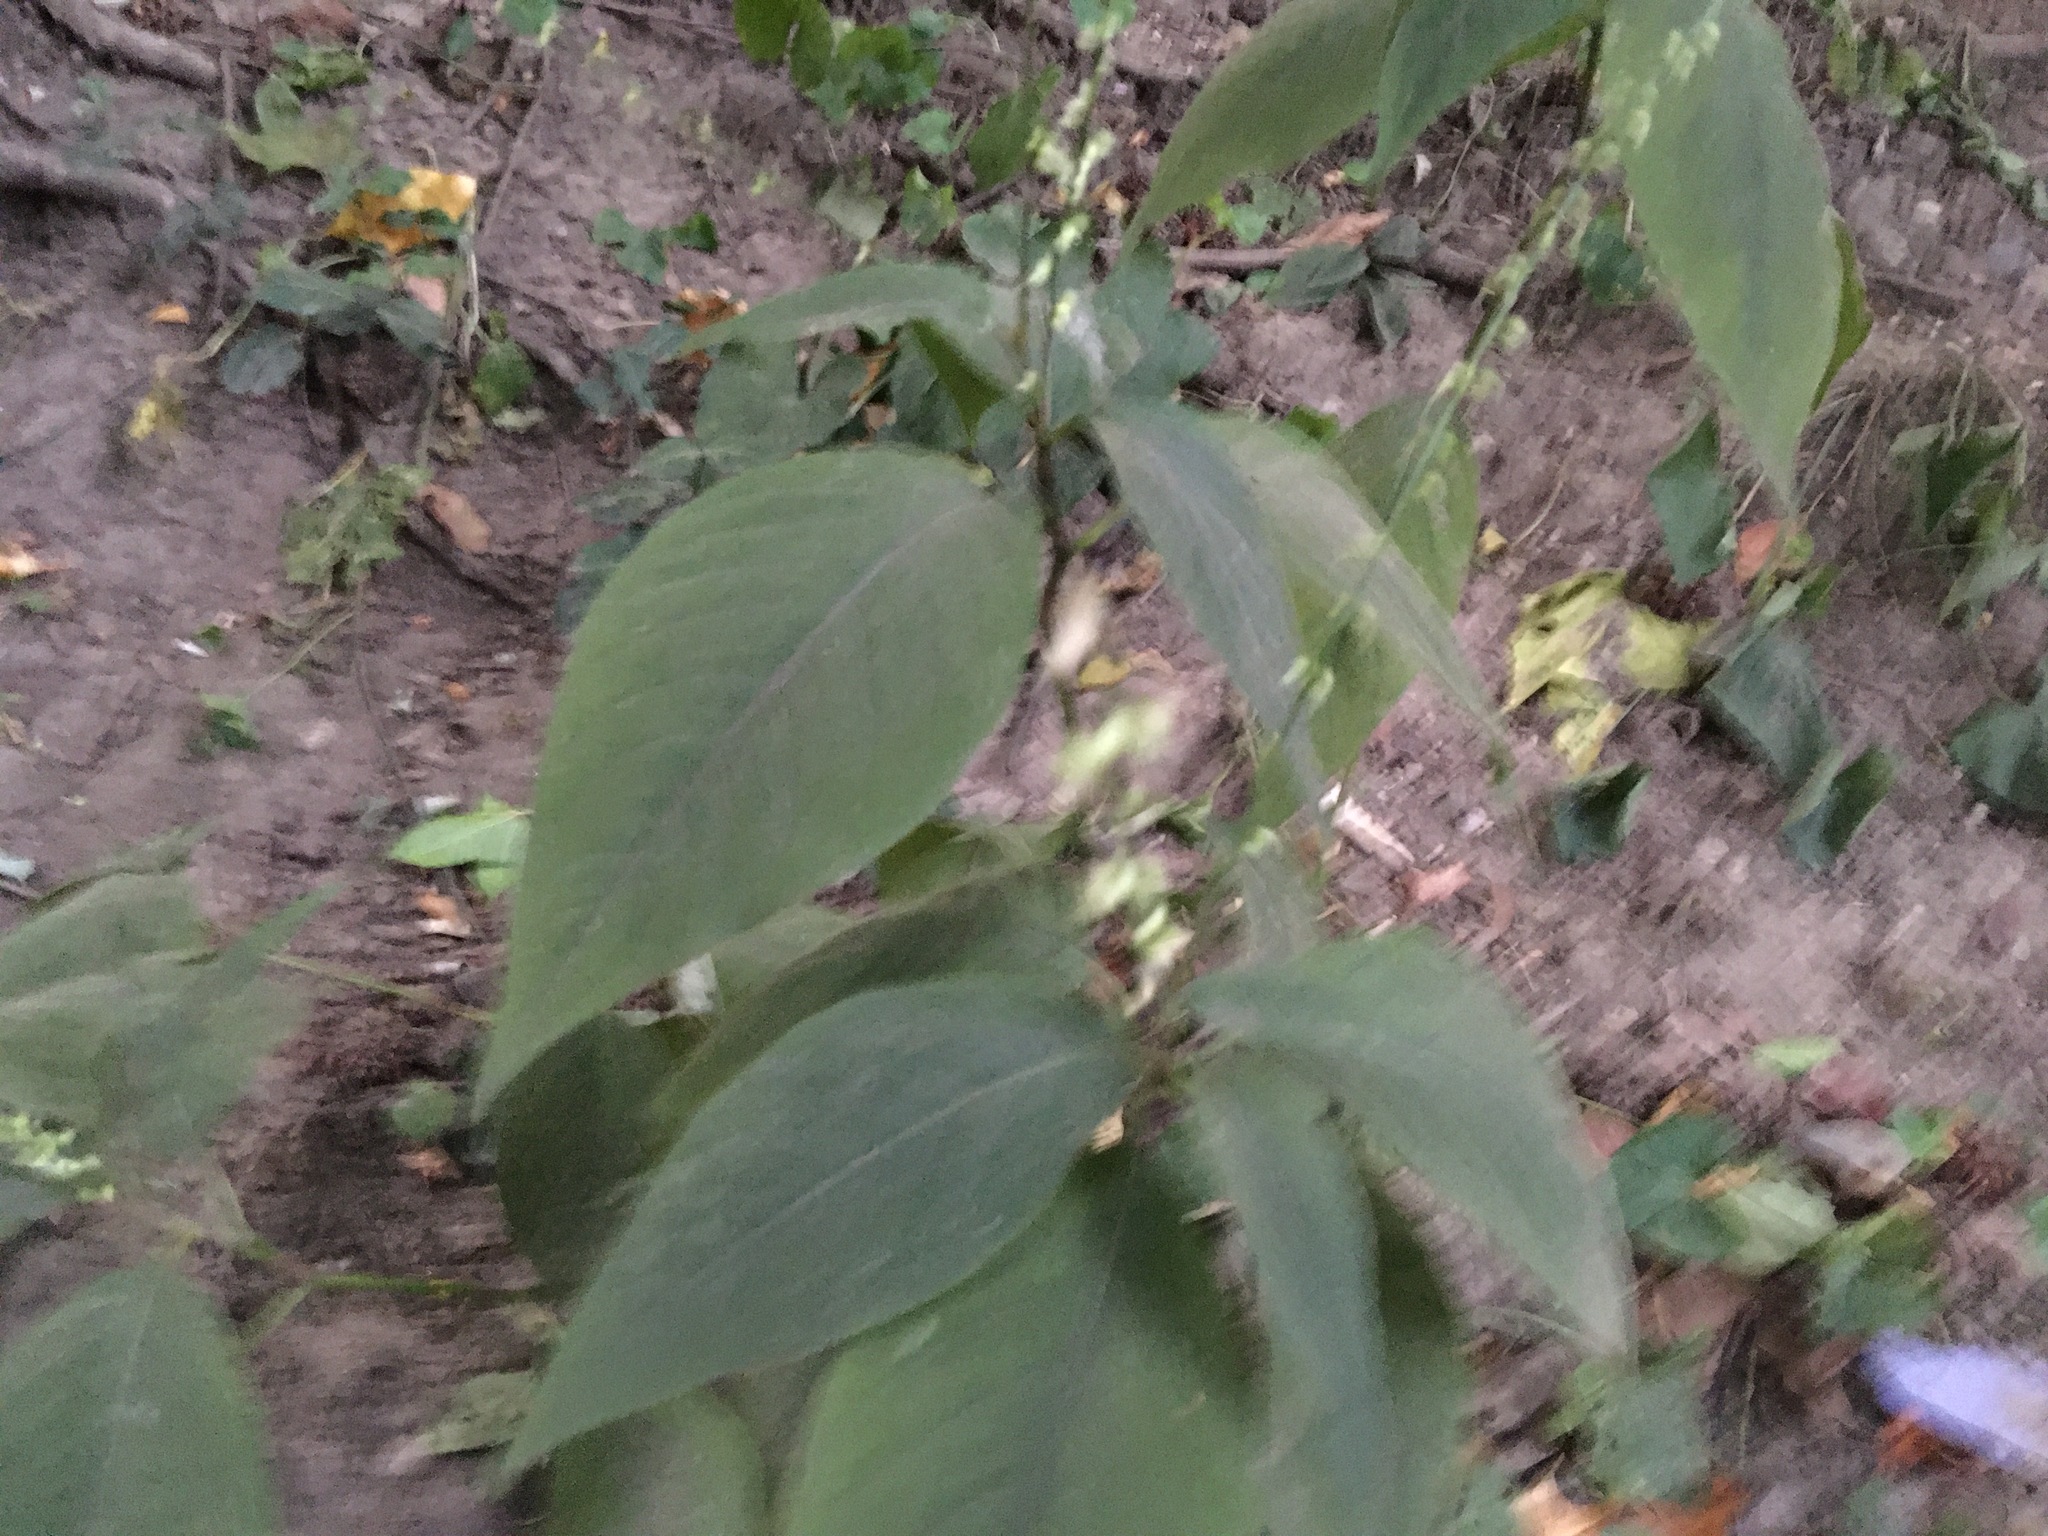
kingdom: Plantae
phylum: Tracheophyta
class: Magnoliopsida
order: Caryophyllales
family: Polygonaceae
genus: Persicaria
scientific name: Persicaria virginiana
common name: Jumpseed
